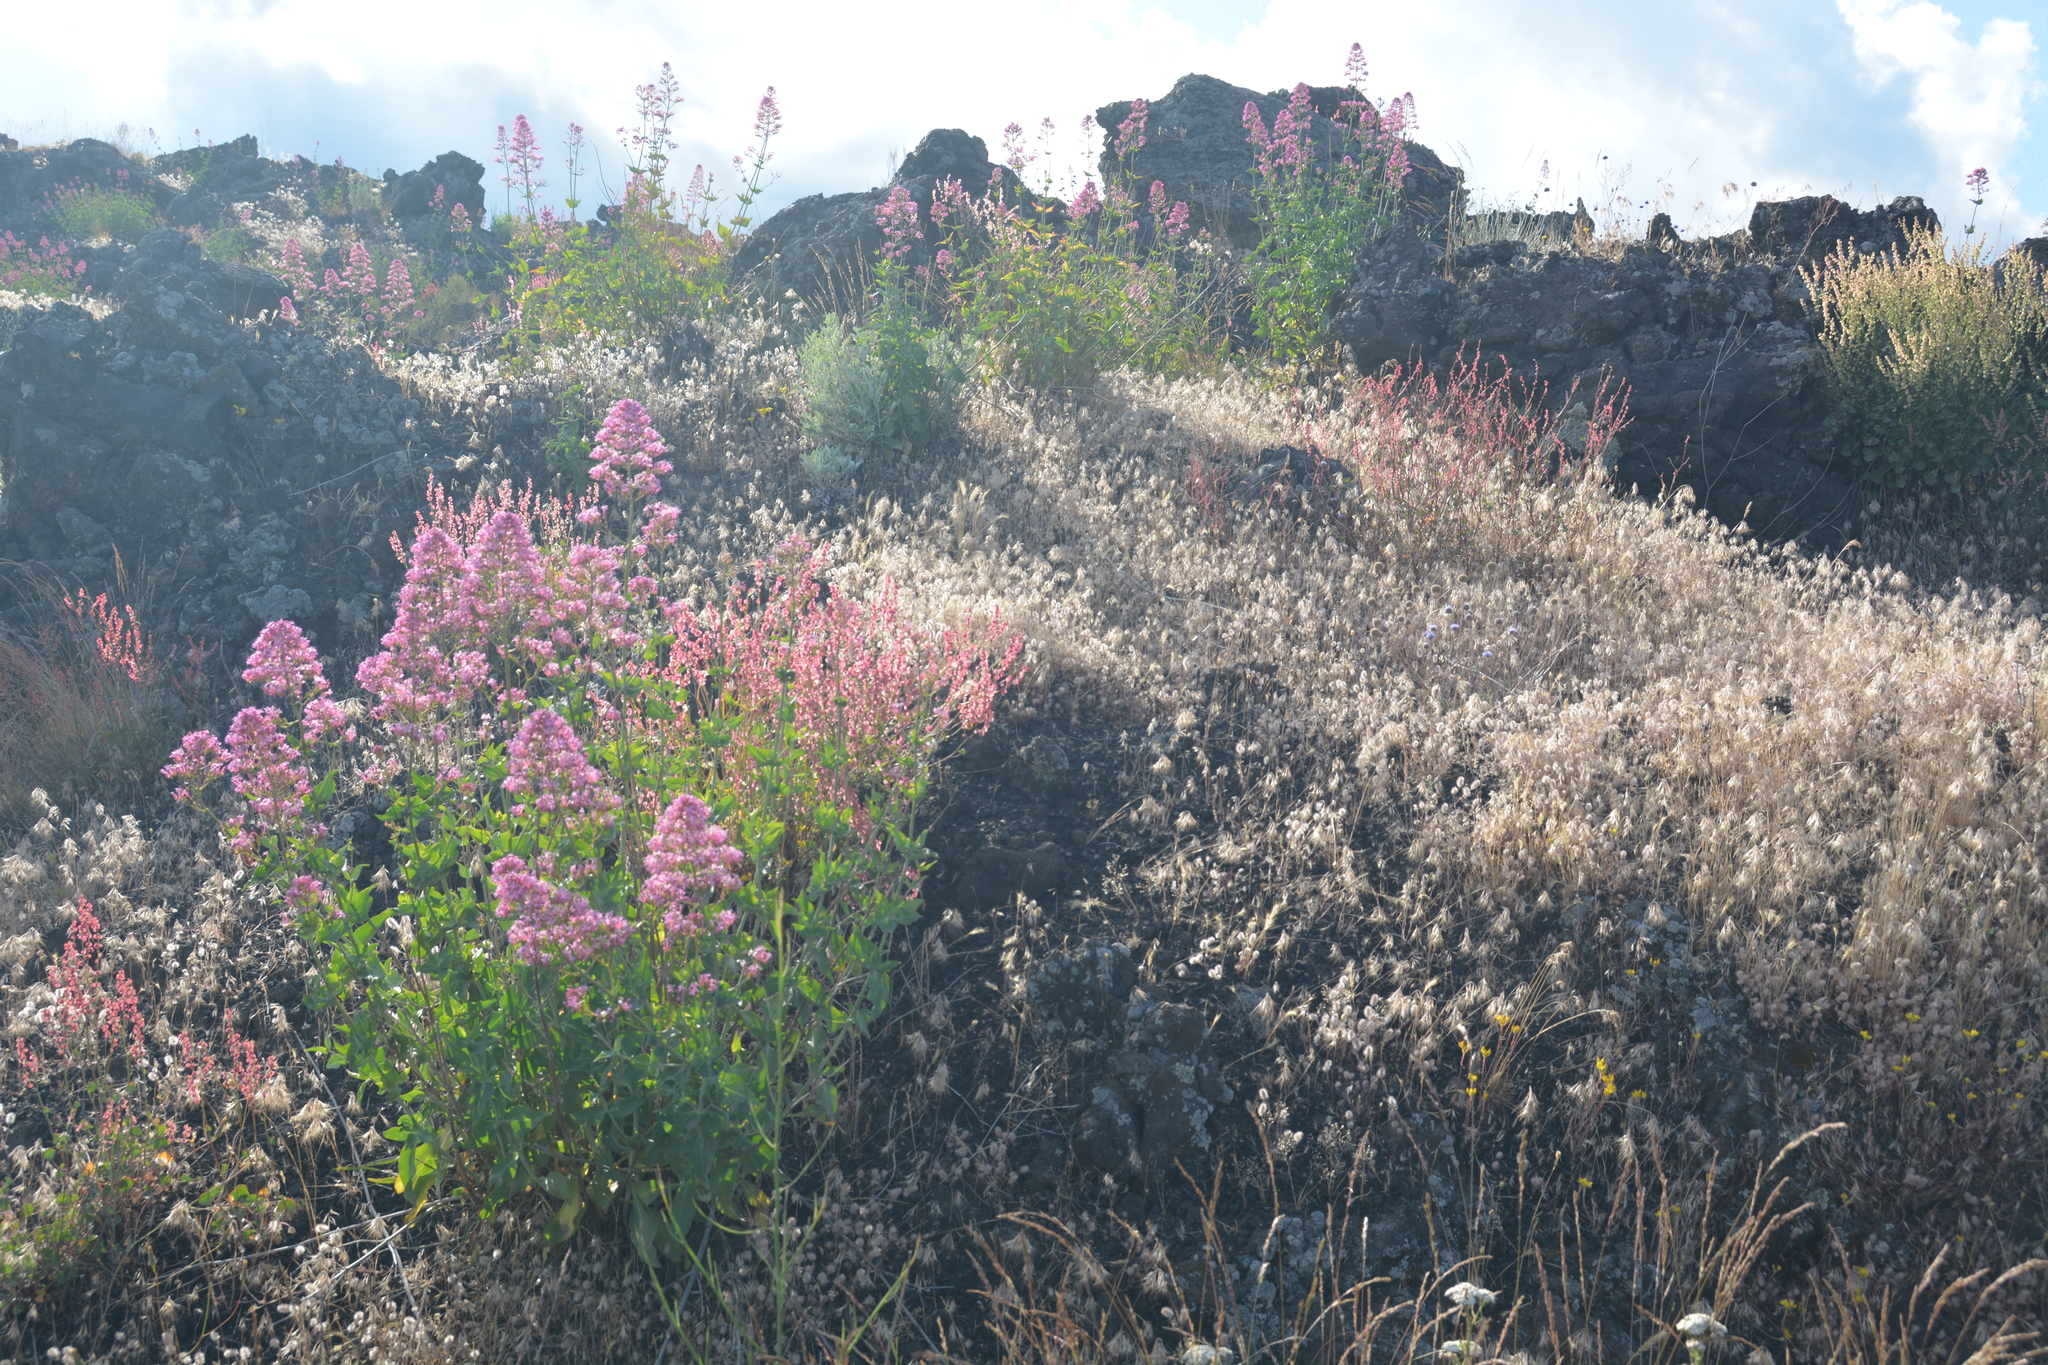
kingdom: Plantae
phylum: Tracheophyta
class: Magnoliopsida
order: Dipsacales
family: Caprifoliaceae
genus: Centranthus
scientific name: Centranthus ruber
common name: Red valerian
